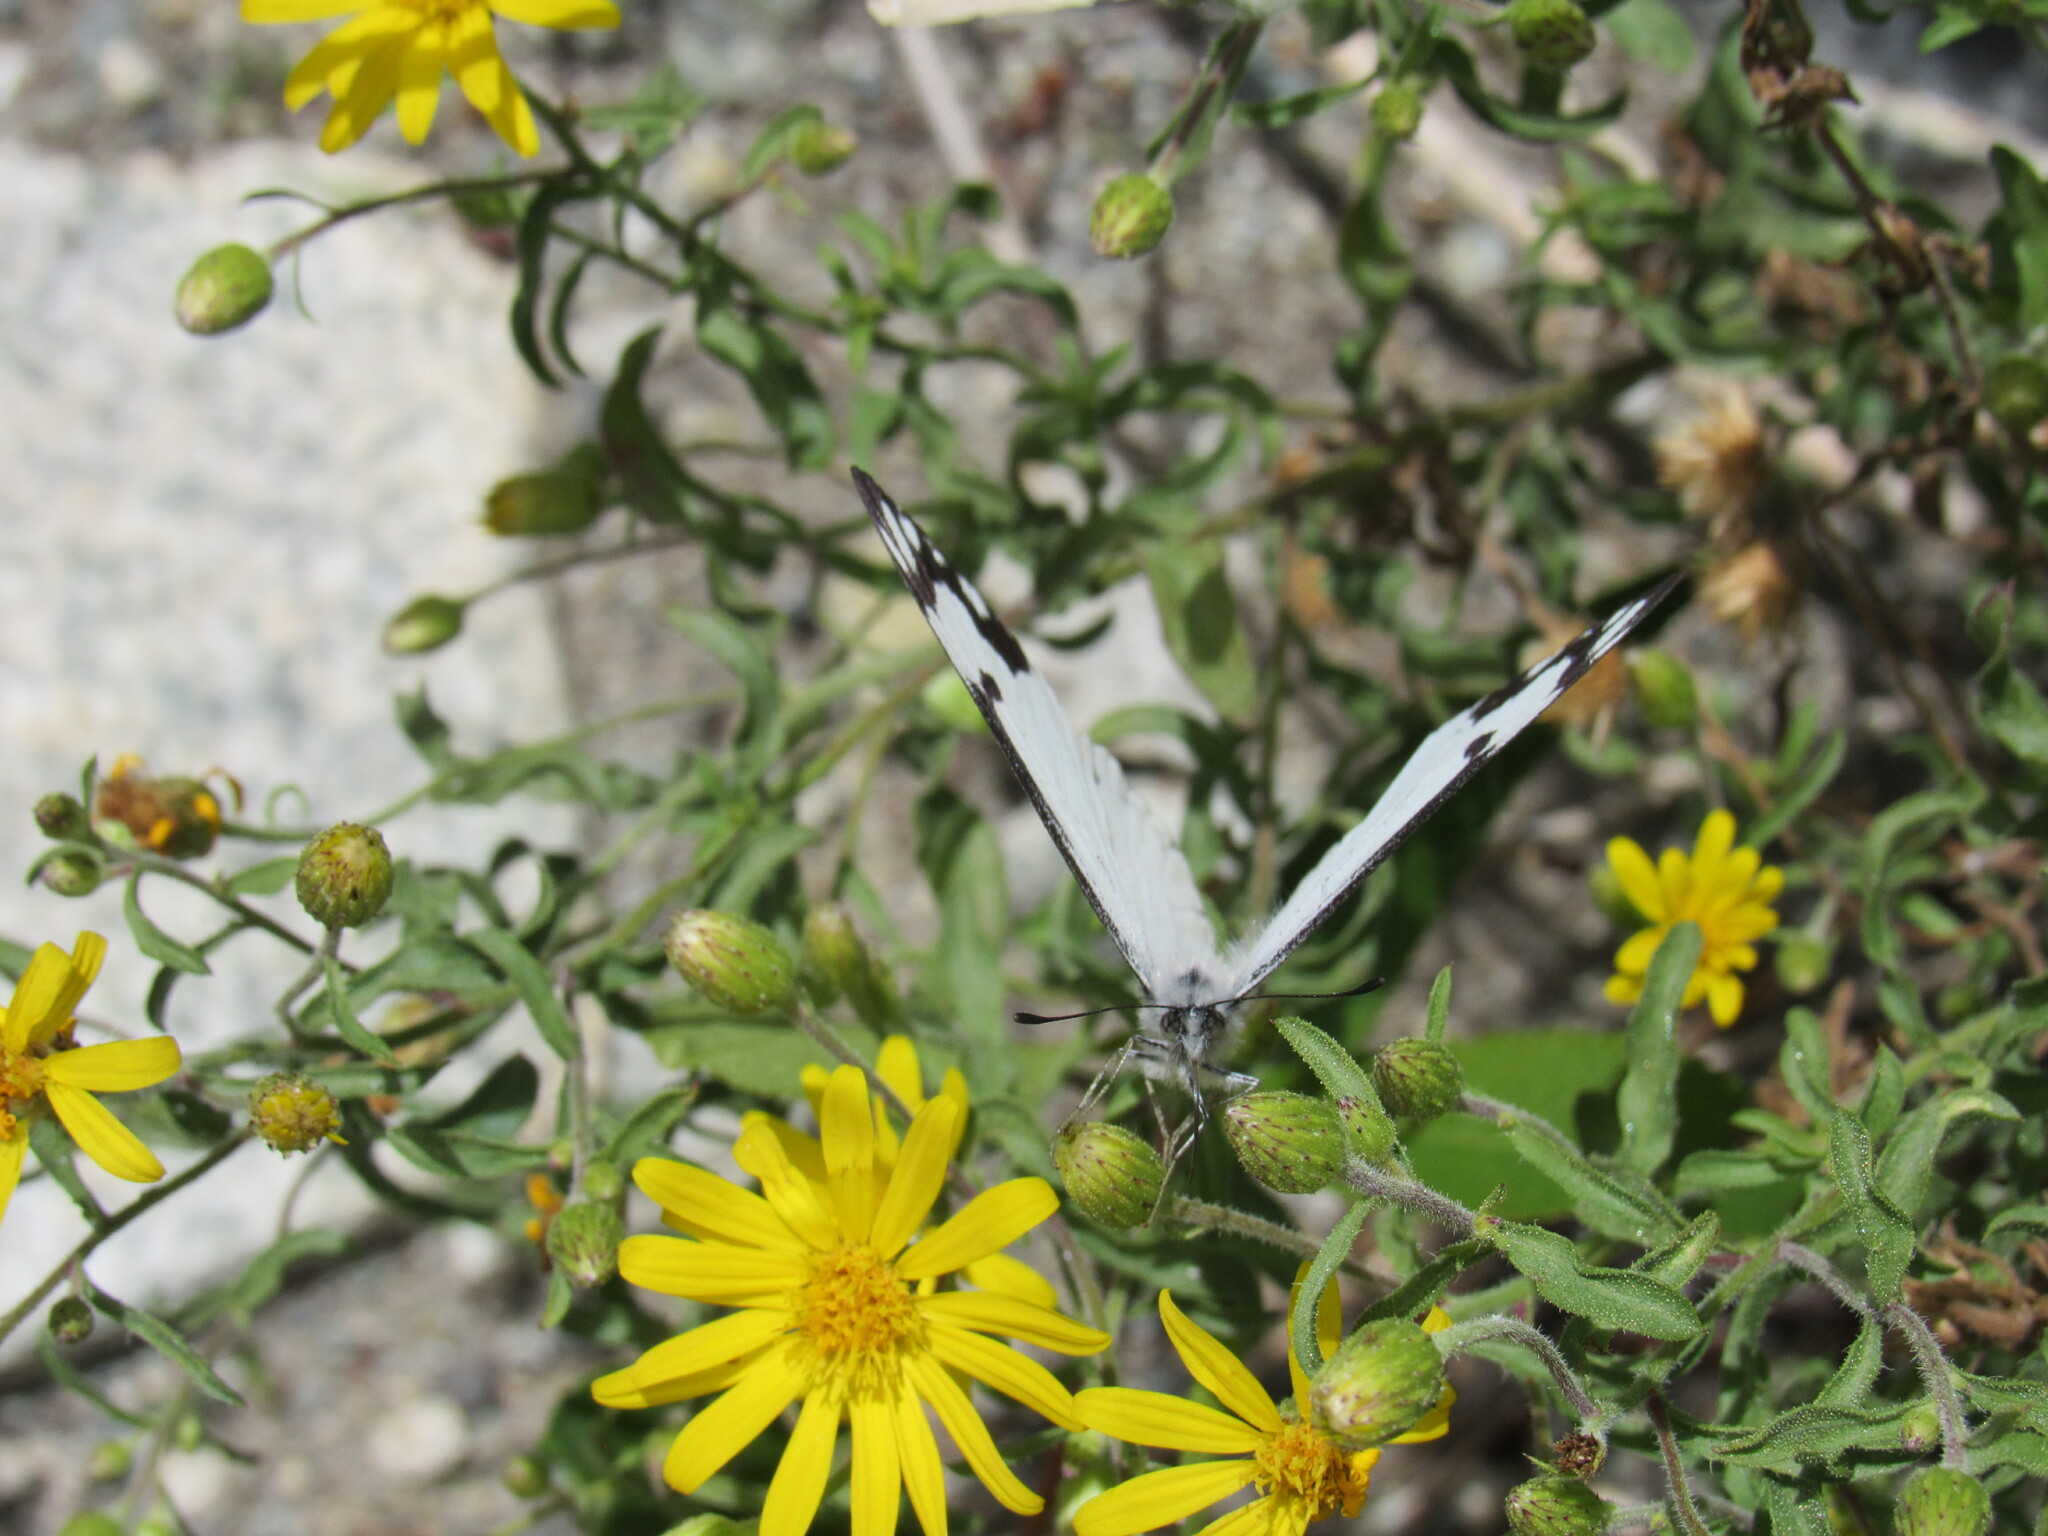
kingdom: Animalia
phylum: Arthropoda
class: Insecta
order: Lepidoptera
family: Pieridae
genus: Neophasia
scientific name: Neophasia menapia
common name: Pine white
